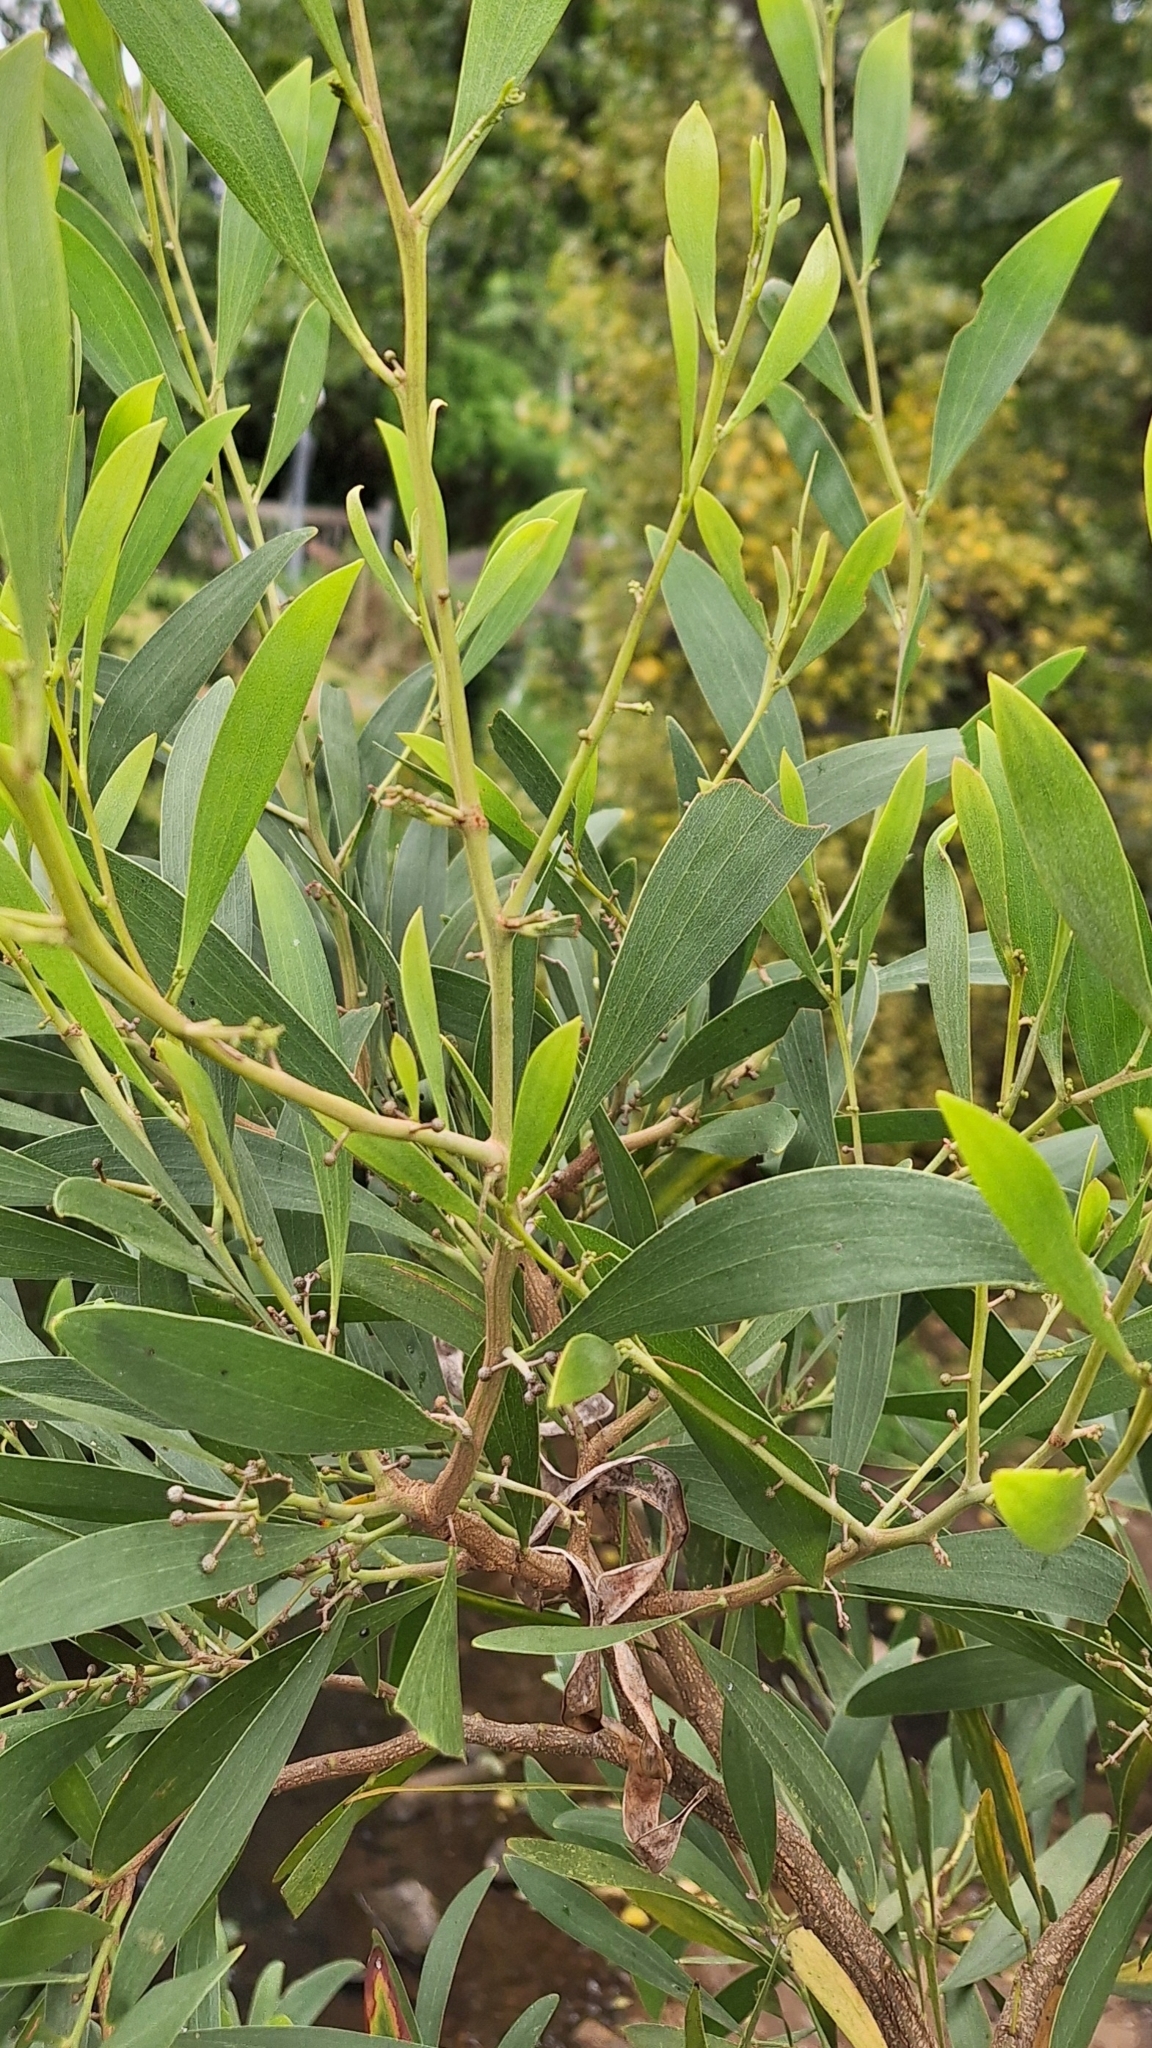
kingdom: Plantae
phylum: Tracheophyta
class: Magnoliopsida
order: Fabales
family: Fabaceae
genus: Acacia
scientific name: Acacia melanoxylon
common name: Blackwood
